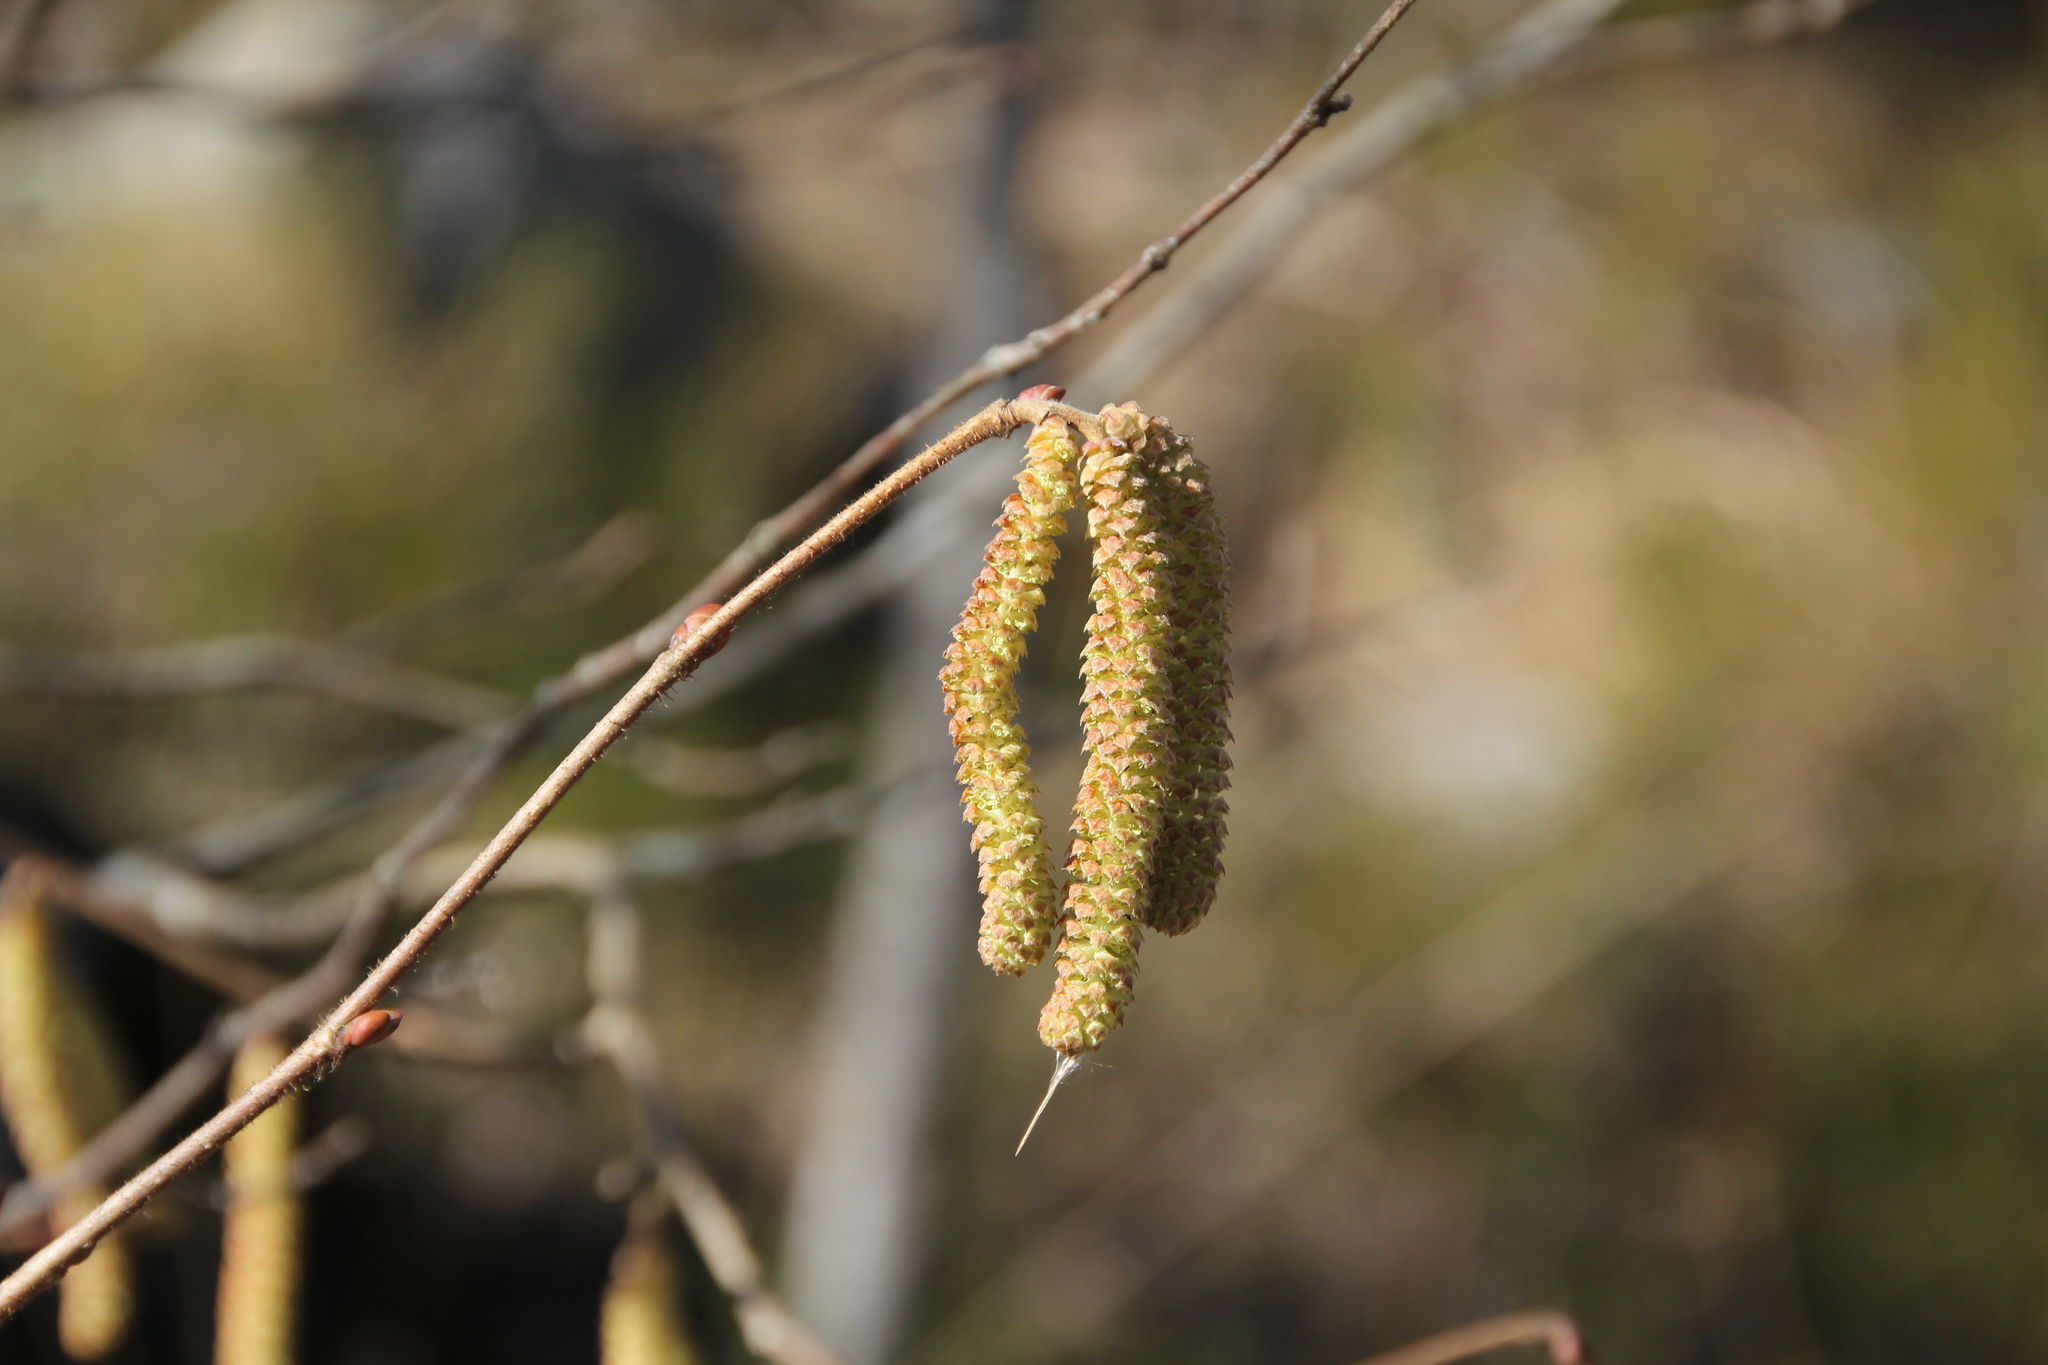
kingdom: Plantae
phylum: Tracheophyta
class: Magnoliopsida
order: Fagales
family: Betulaceae
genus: Corylus
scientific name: Corylus avellana
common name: European hazel
